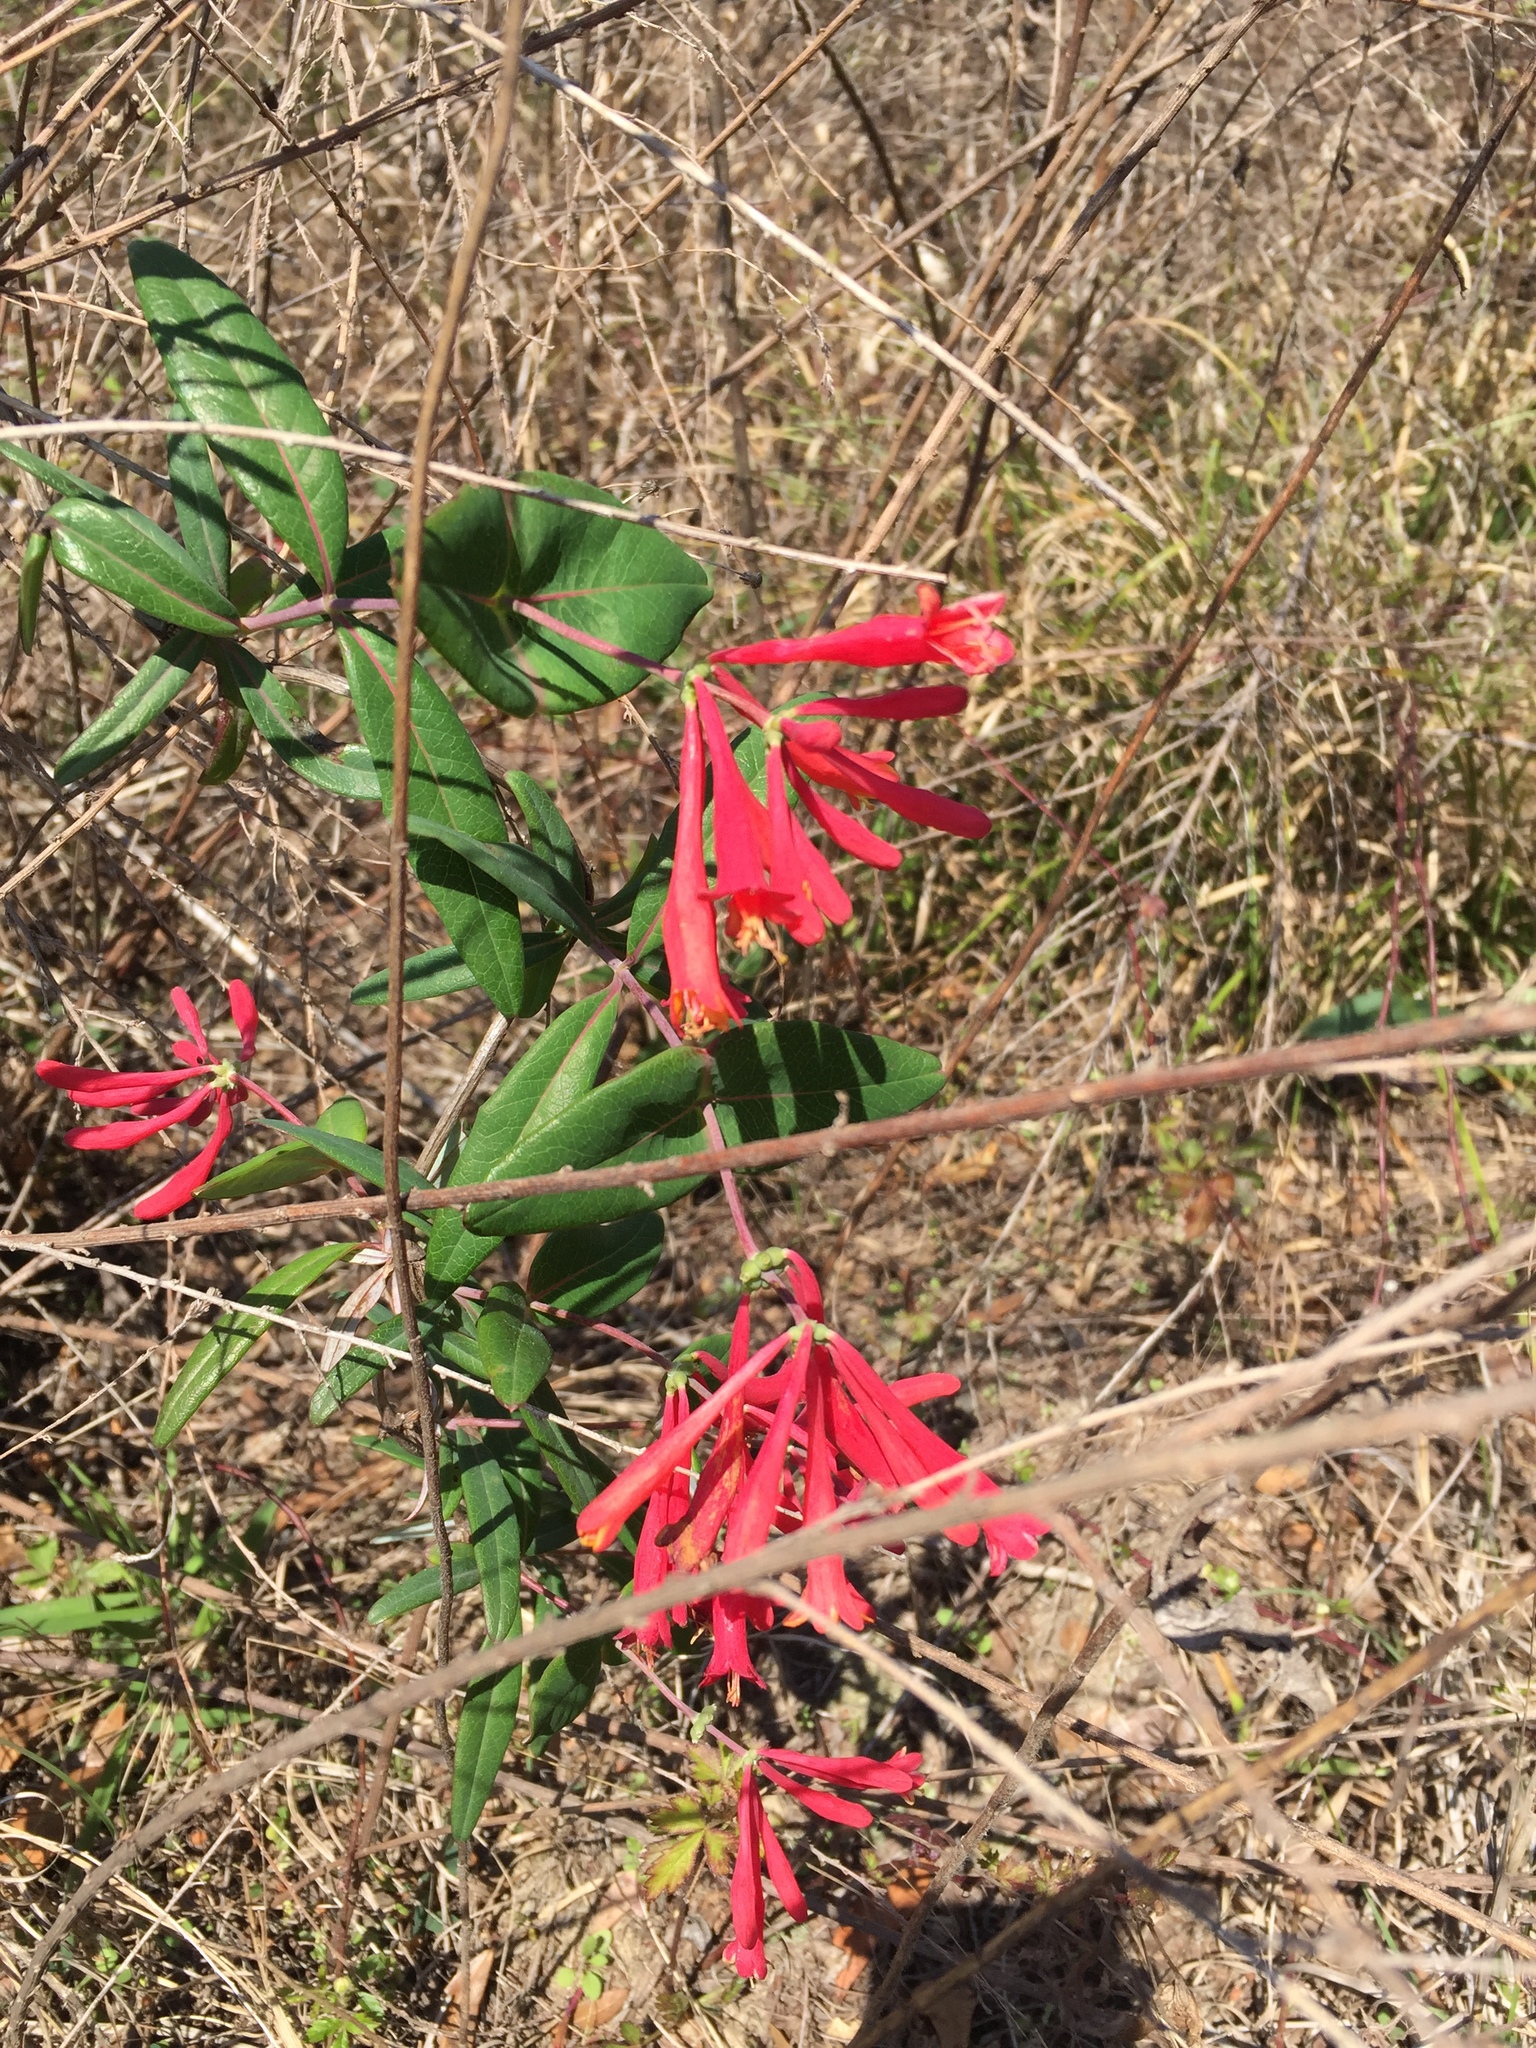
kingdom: Plantae
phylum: Tracheophyta
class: Magnoliopsida
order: Dipsacales
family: Caprifoliaceae
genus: Lonicera
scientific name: Lonicera sempervirens
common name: Coral honeysuckle
